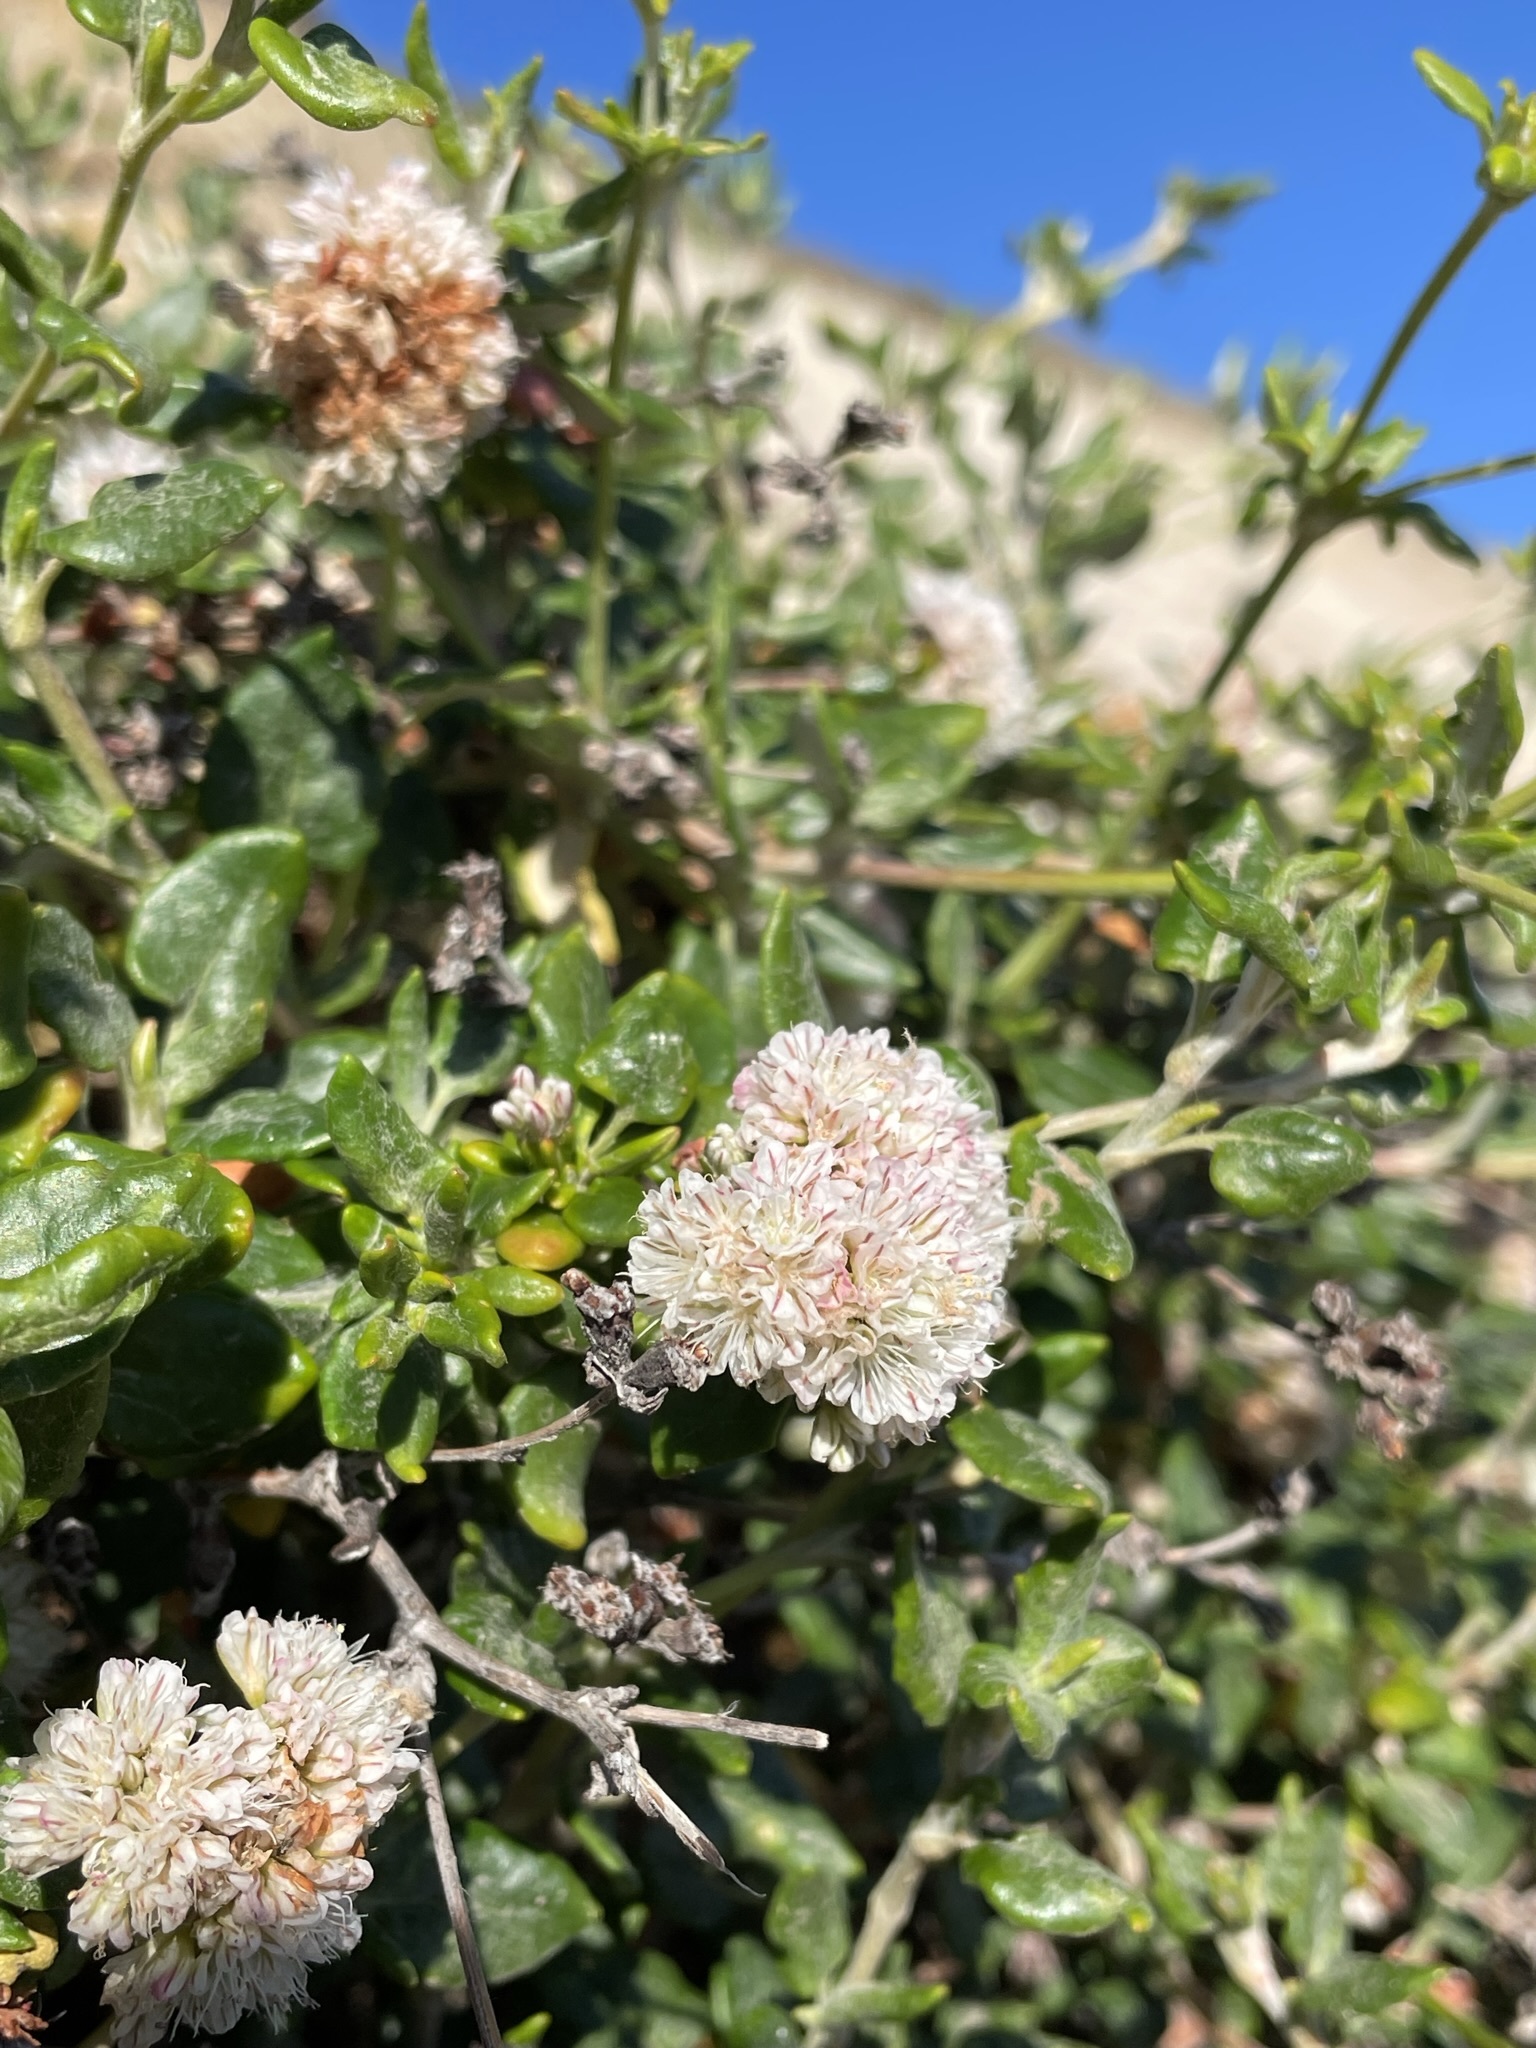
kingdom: Plantae
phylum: Tracheophyta
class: Magnoliopsida
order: Caryophyllales
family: Polygonaceae
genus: Eriogonum
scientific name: Eriogonum parvifolium
